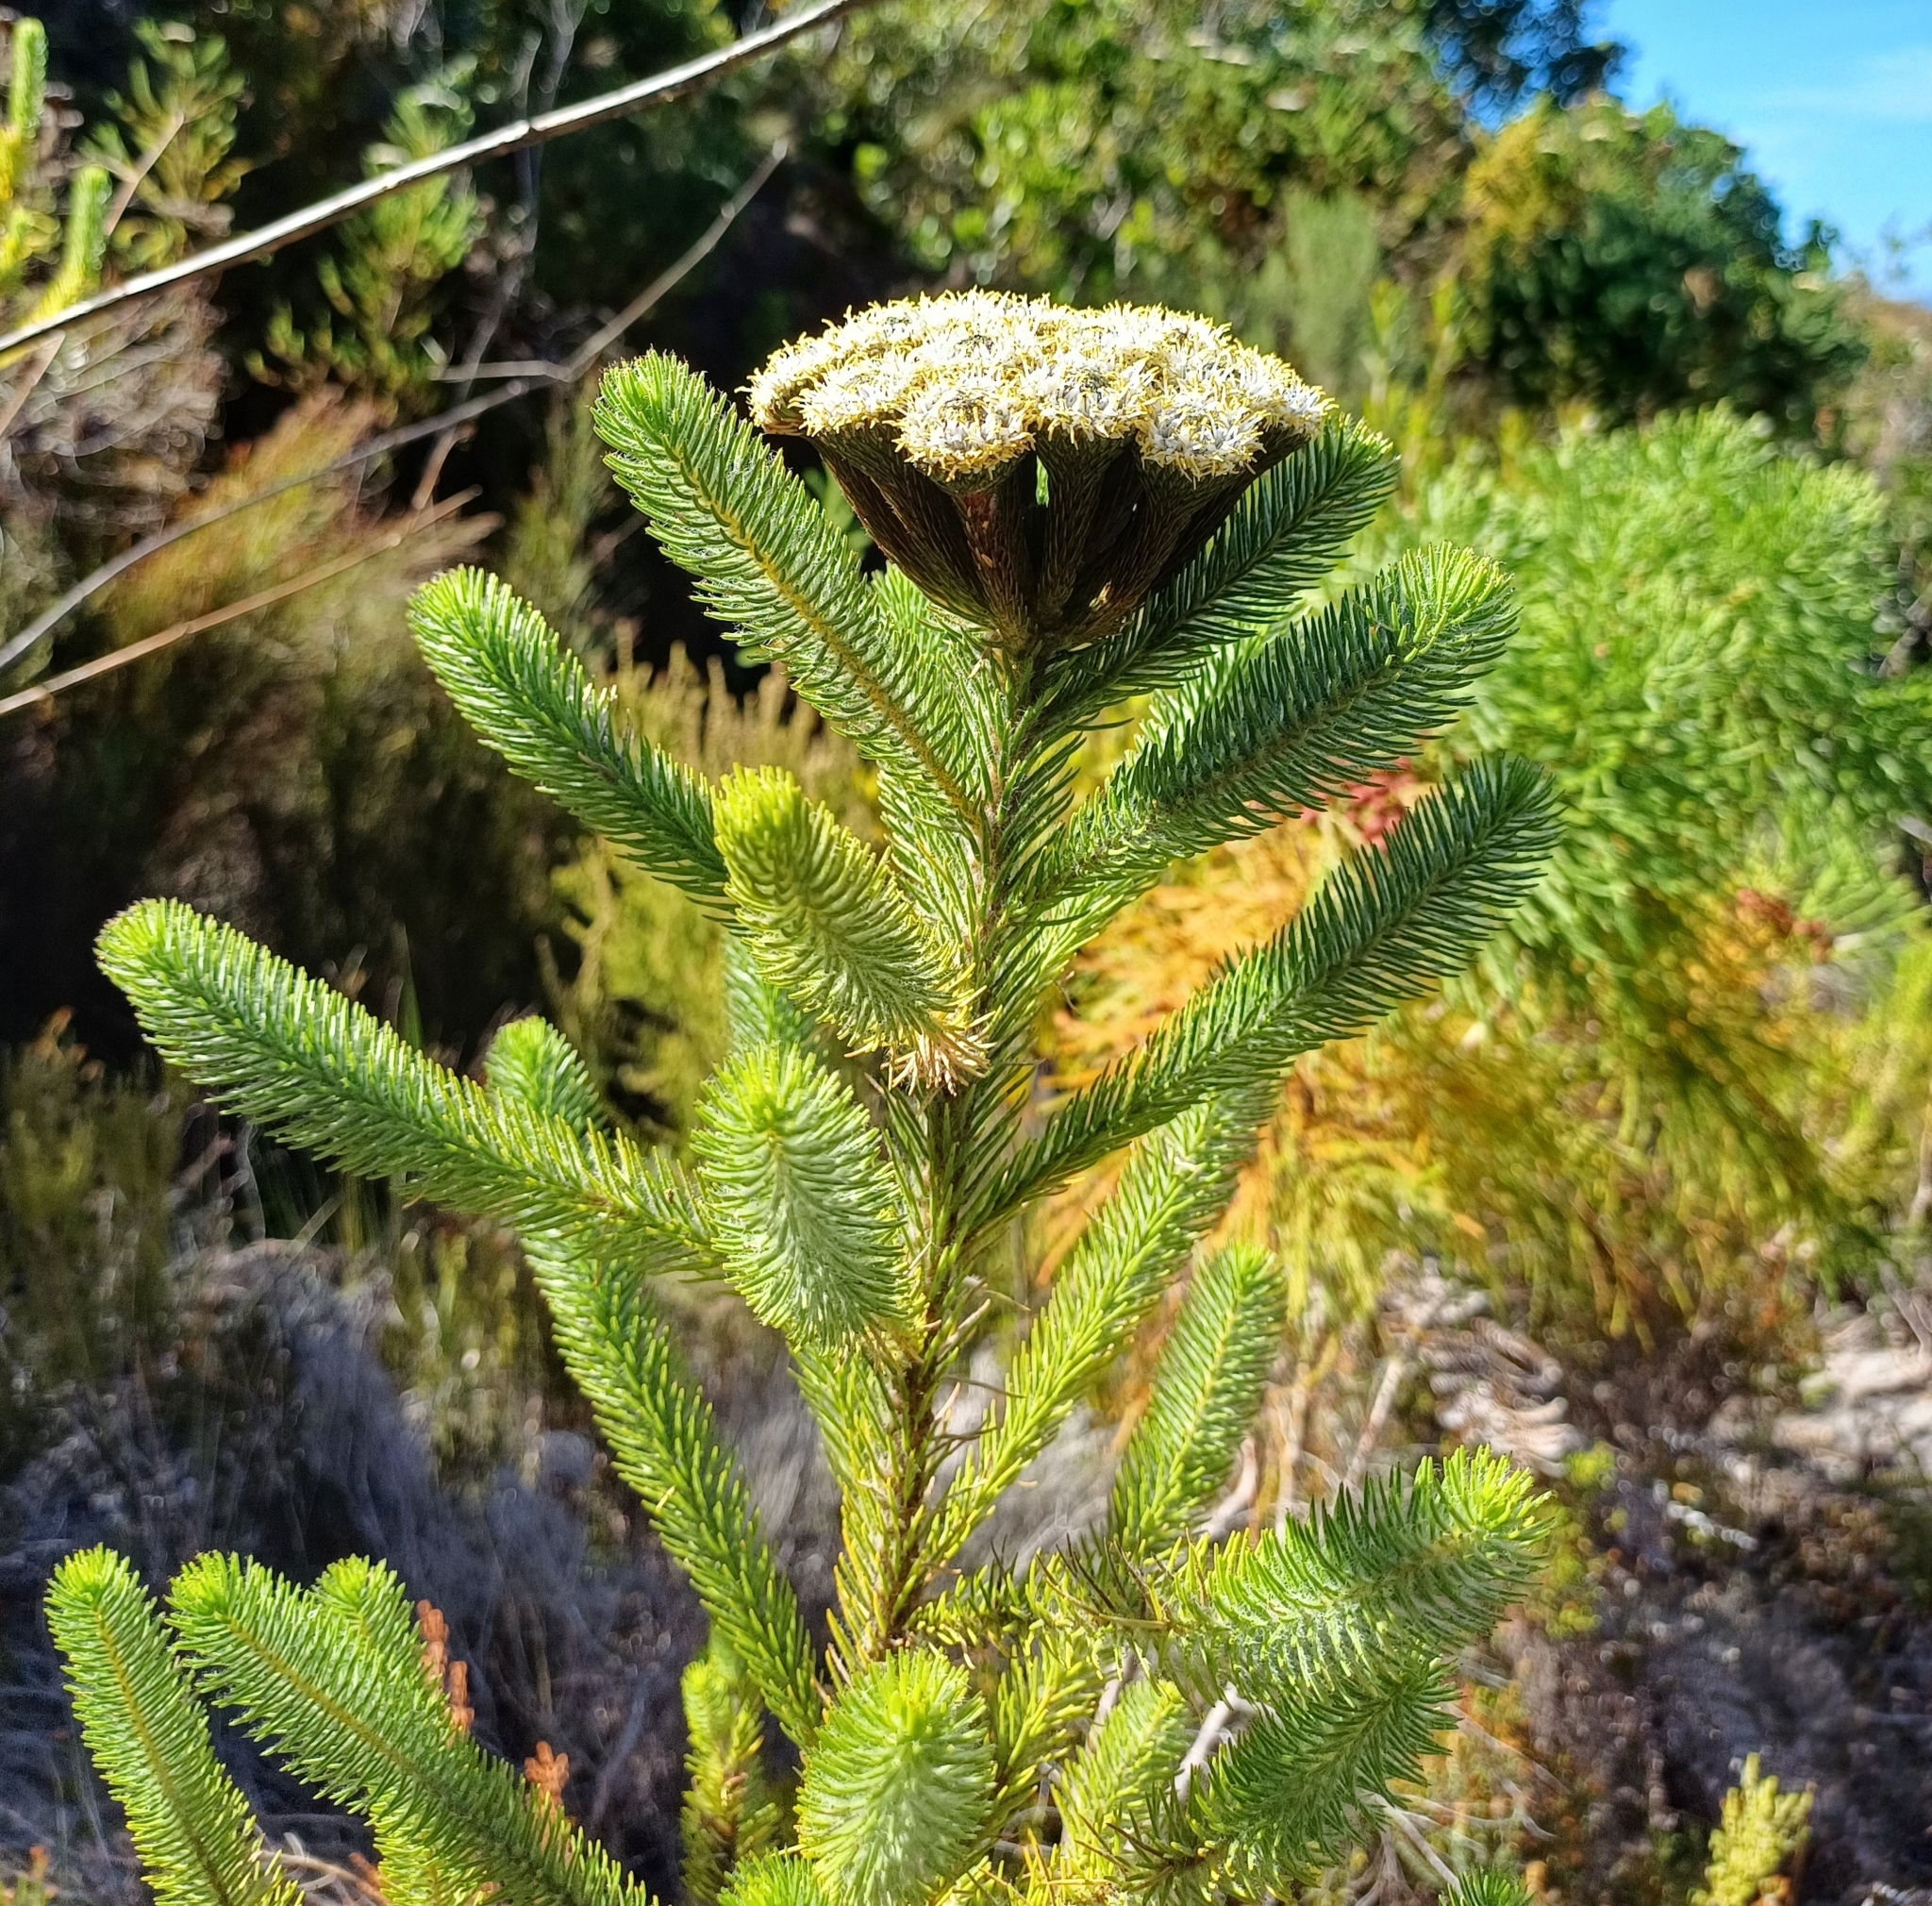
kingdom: Plantae
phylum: Tracheophyta
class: Magnoliopsida
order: Bruniales
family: Bruniaceae
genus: Berzelia
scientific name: Berzelia albiflora
